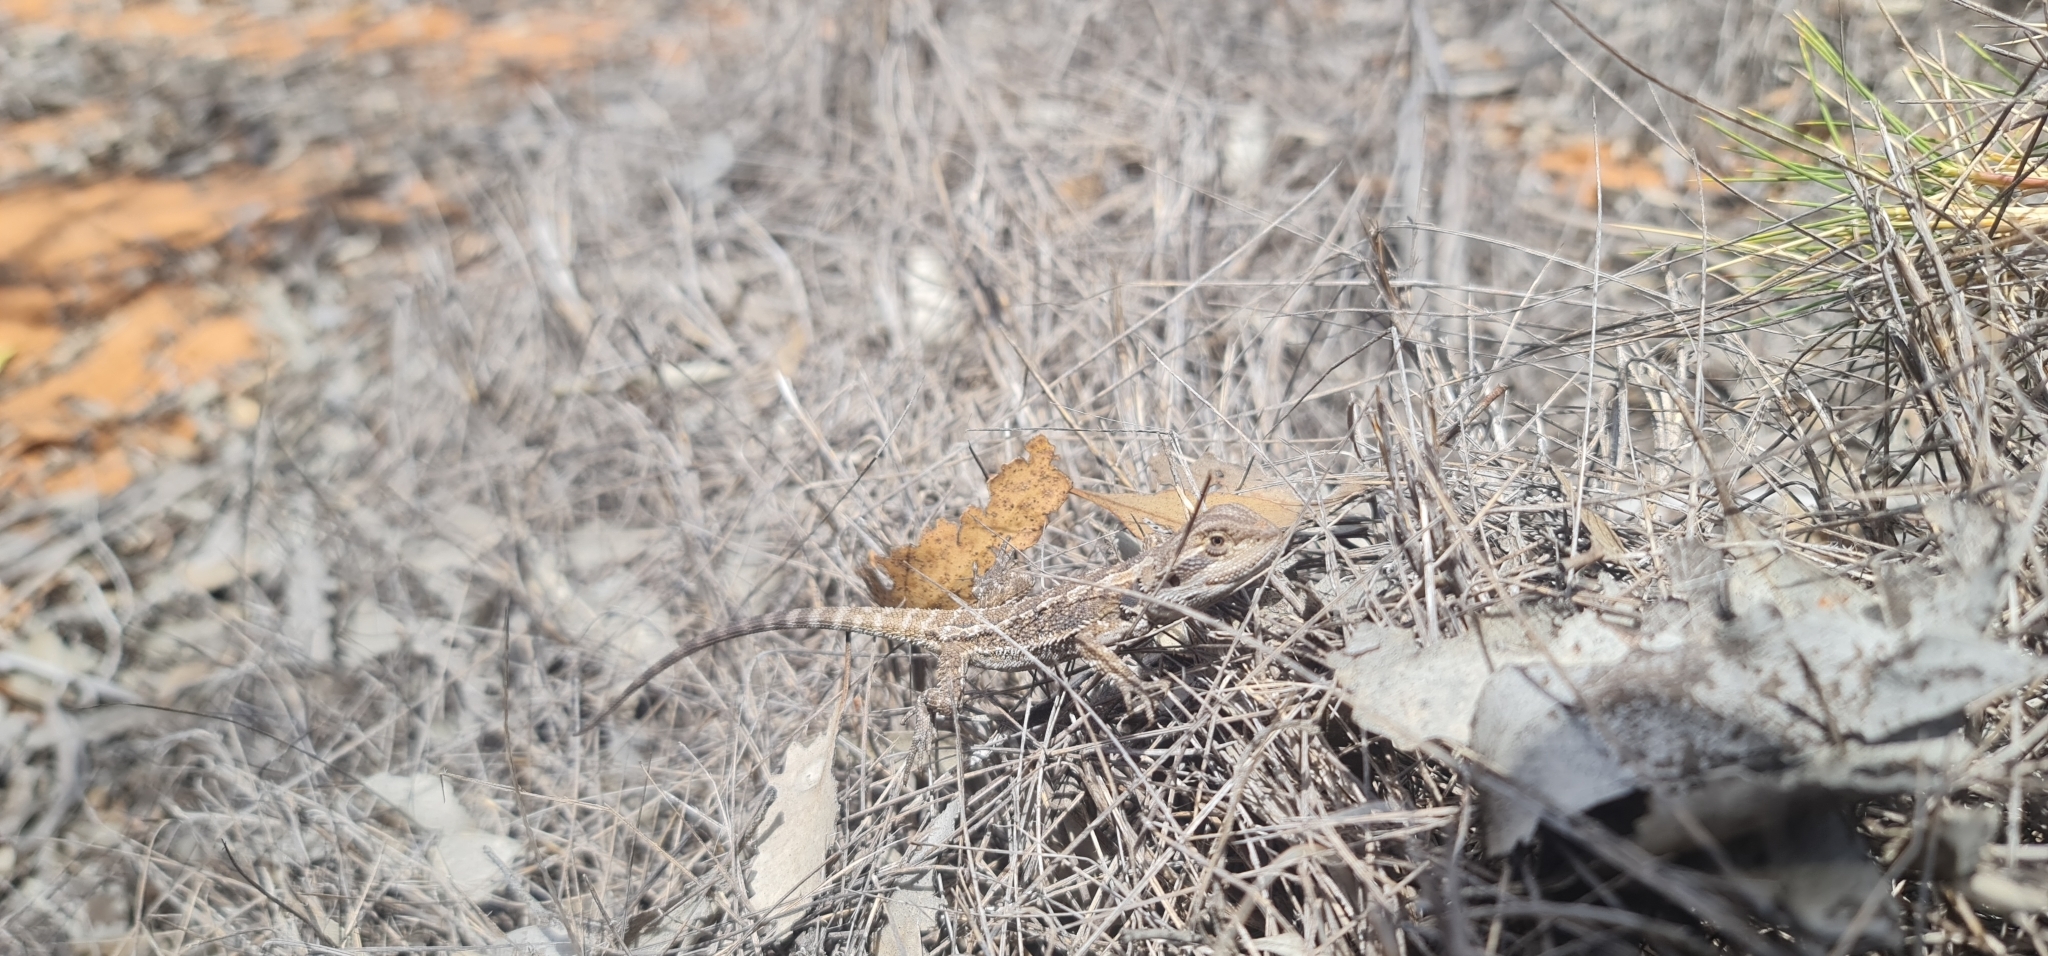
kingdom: Animalia
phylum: Chordata
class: Squamata
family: Agamidae
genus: Pogona
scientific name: Pogona vitticeps
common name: Central bearded dragon
